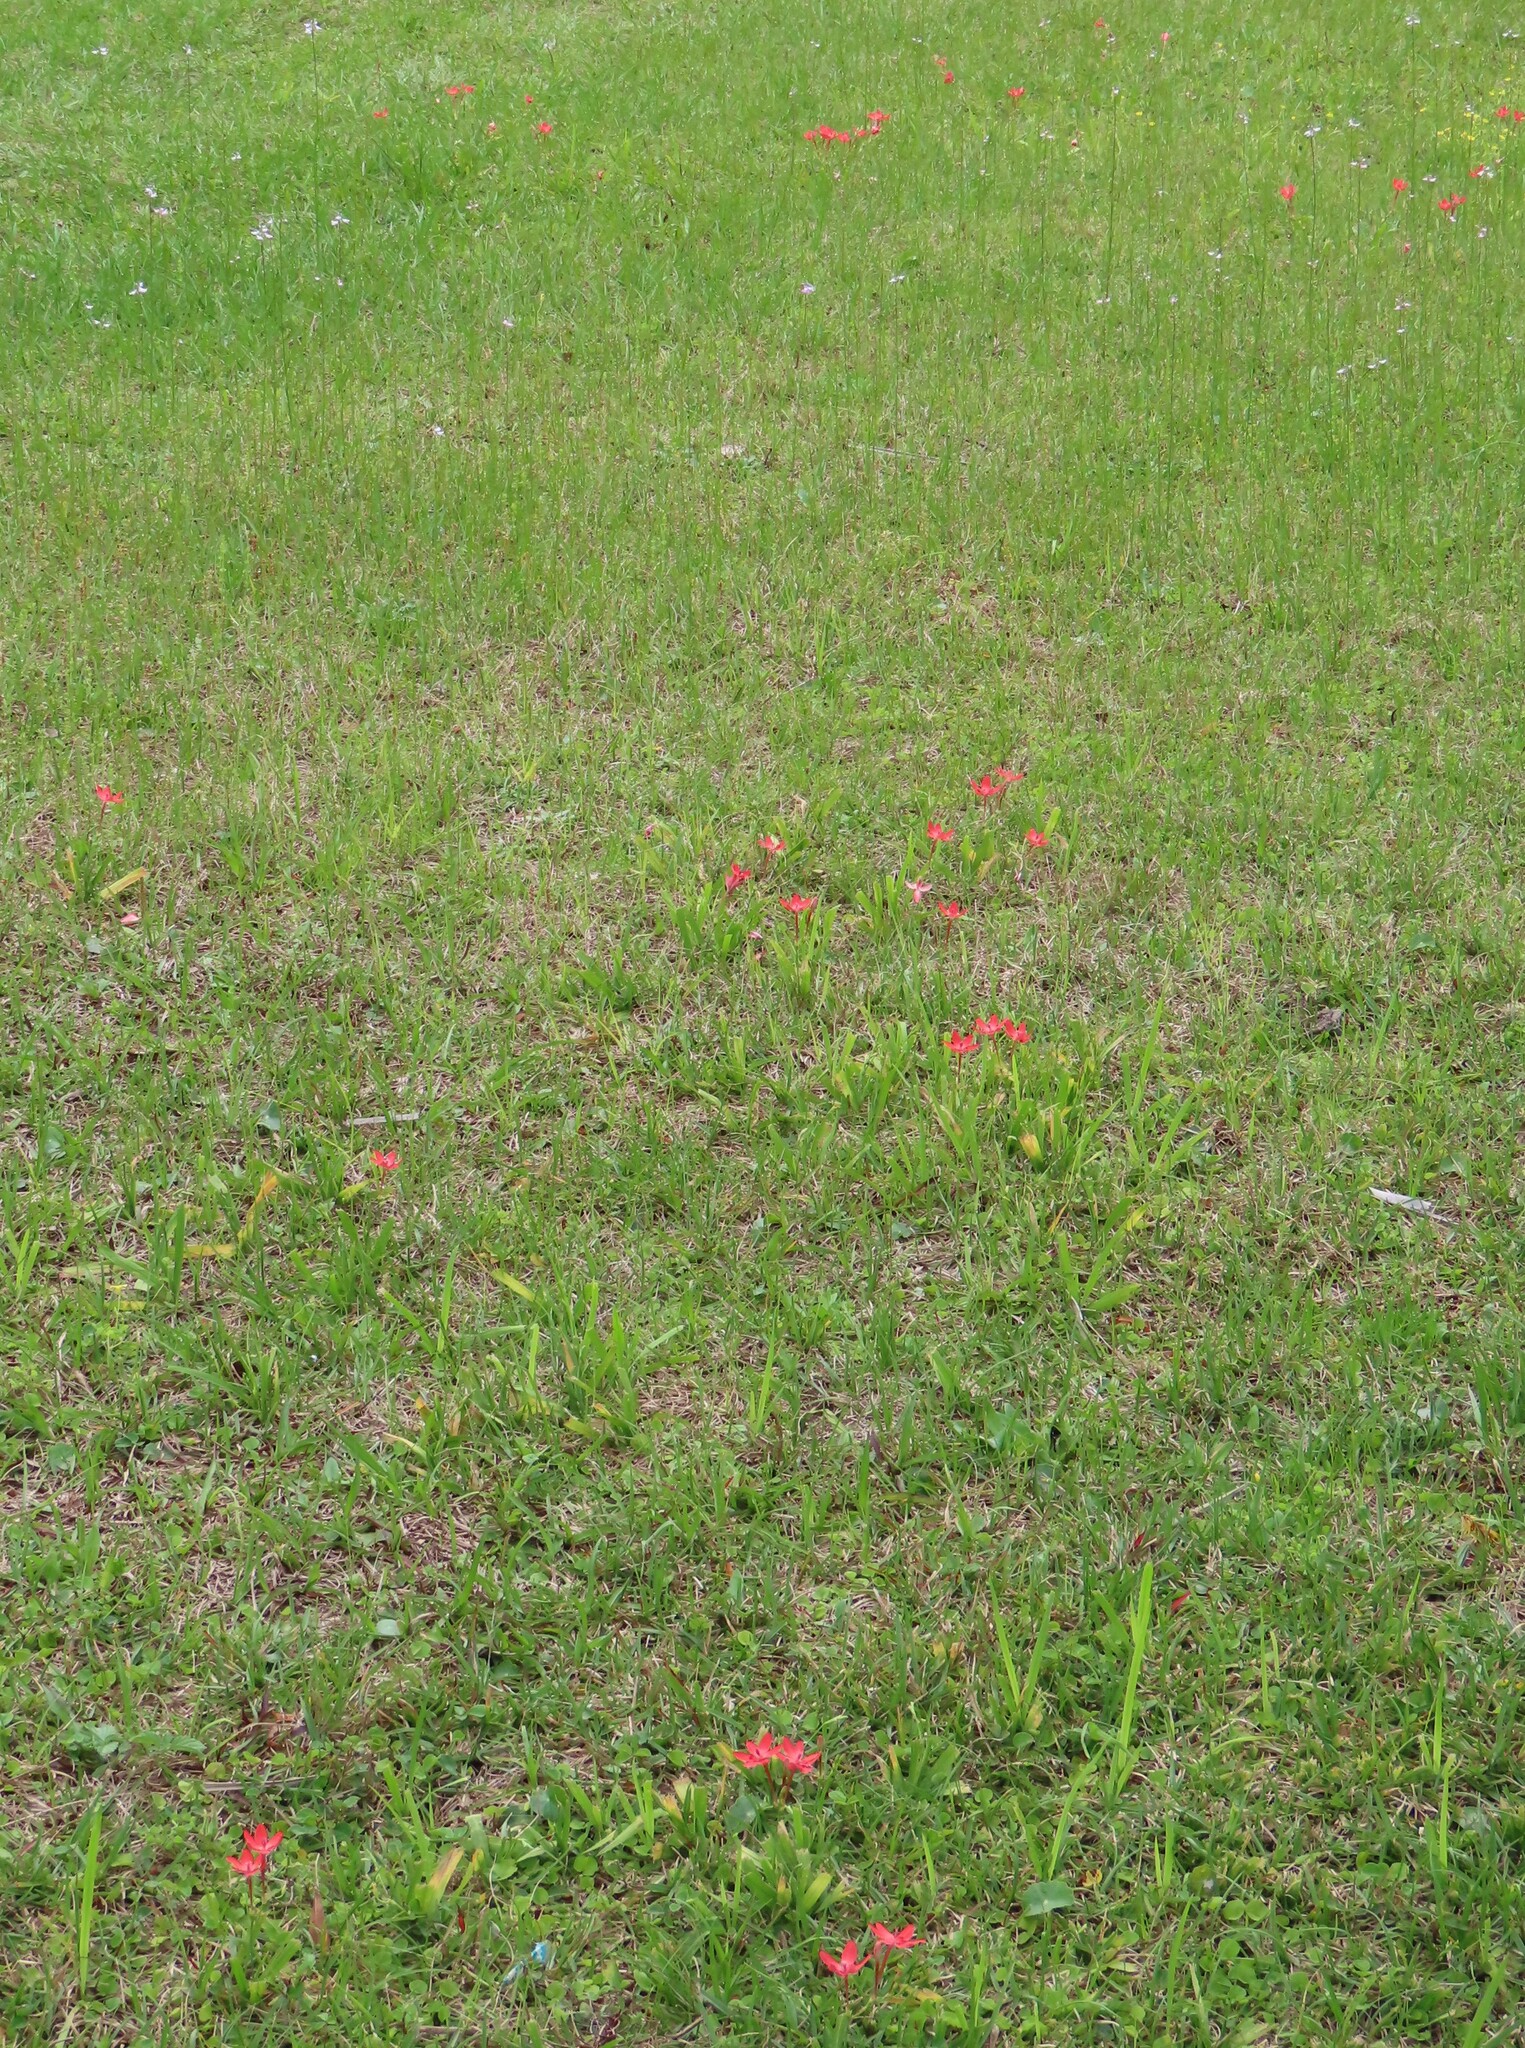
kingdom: Plantae
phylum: Tracheophyta
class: Liliopsida
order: Asparagales
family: Iridaceae
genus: Freesia
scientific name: Freesia laxa
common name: False freesia
